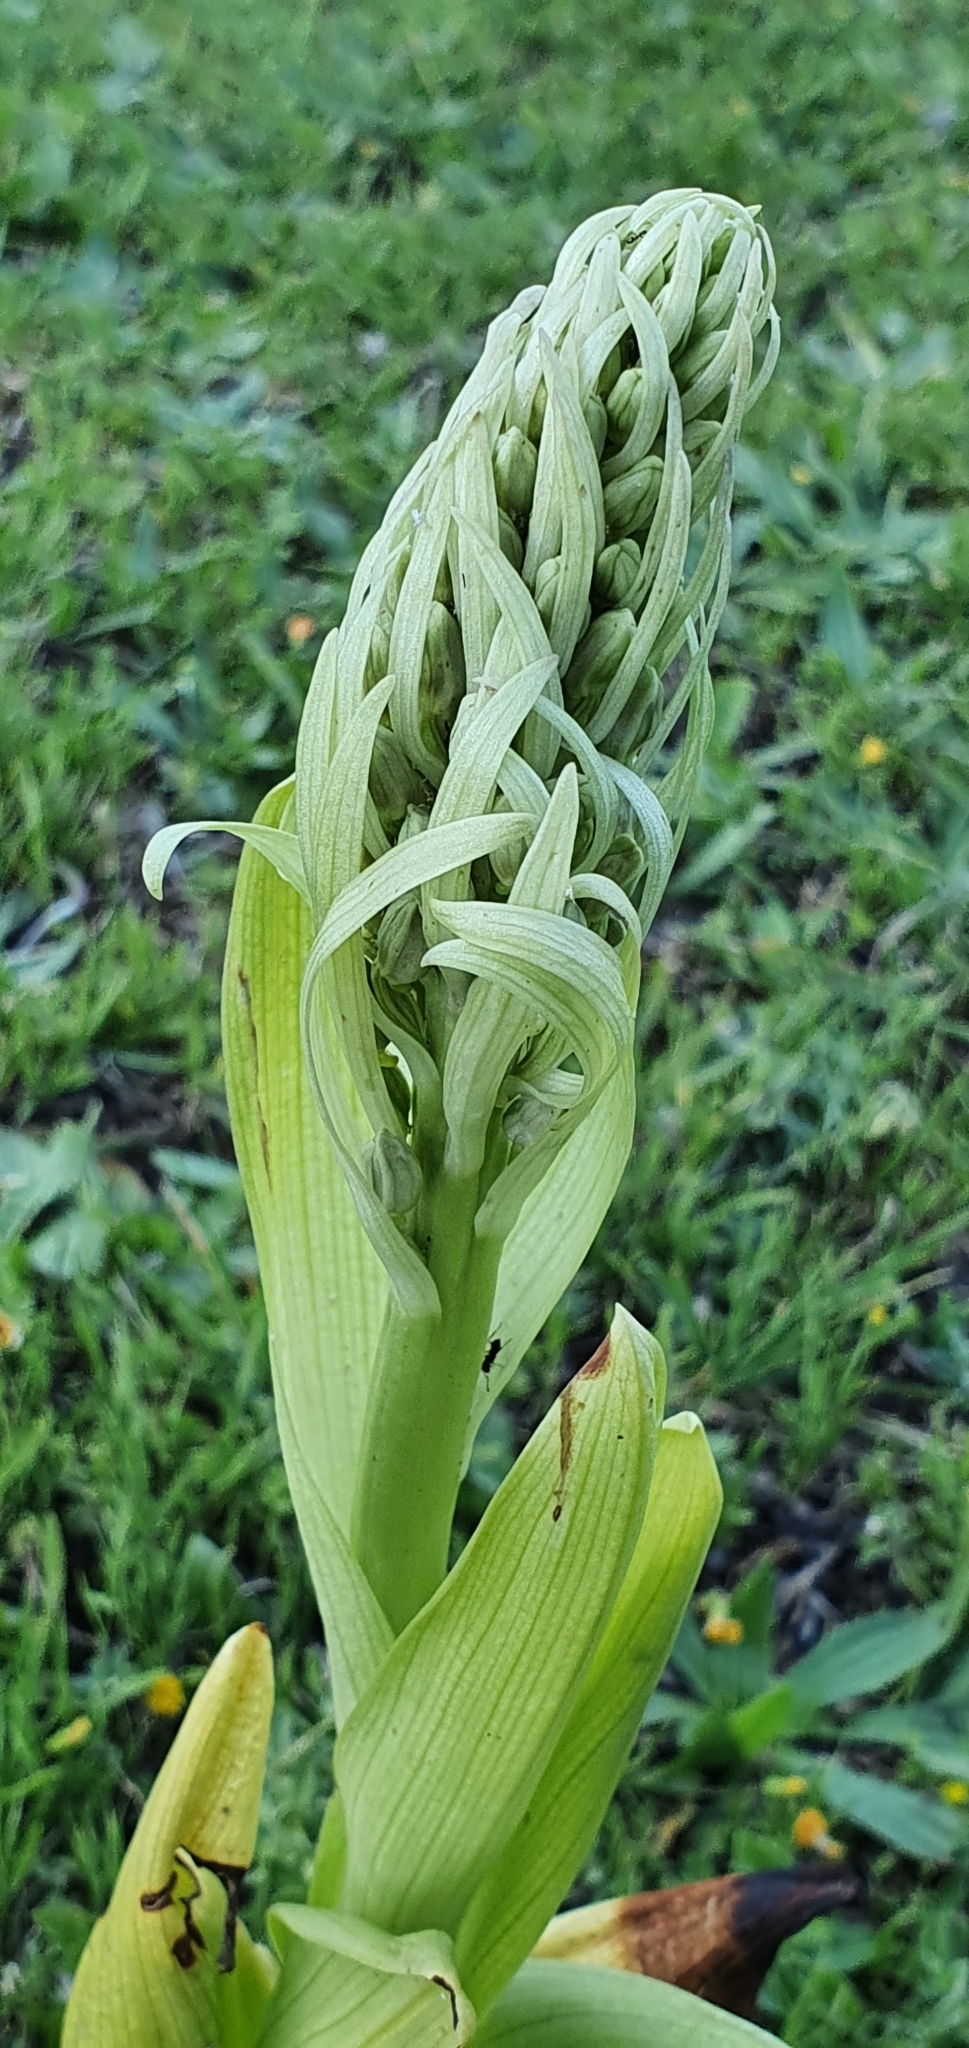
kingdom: Plantae
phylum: Tracheophyta
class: Liliopsida
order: Asparagales
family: Orchidaceae
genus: Himantoglossum
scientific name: Himantoglossum hircinum
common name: Lizard orchid
